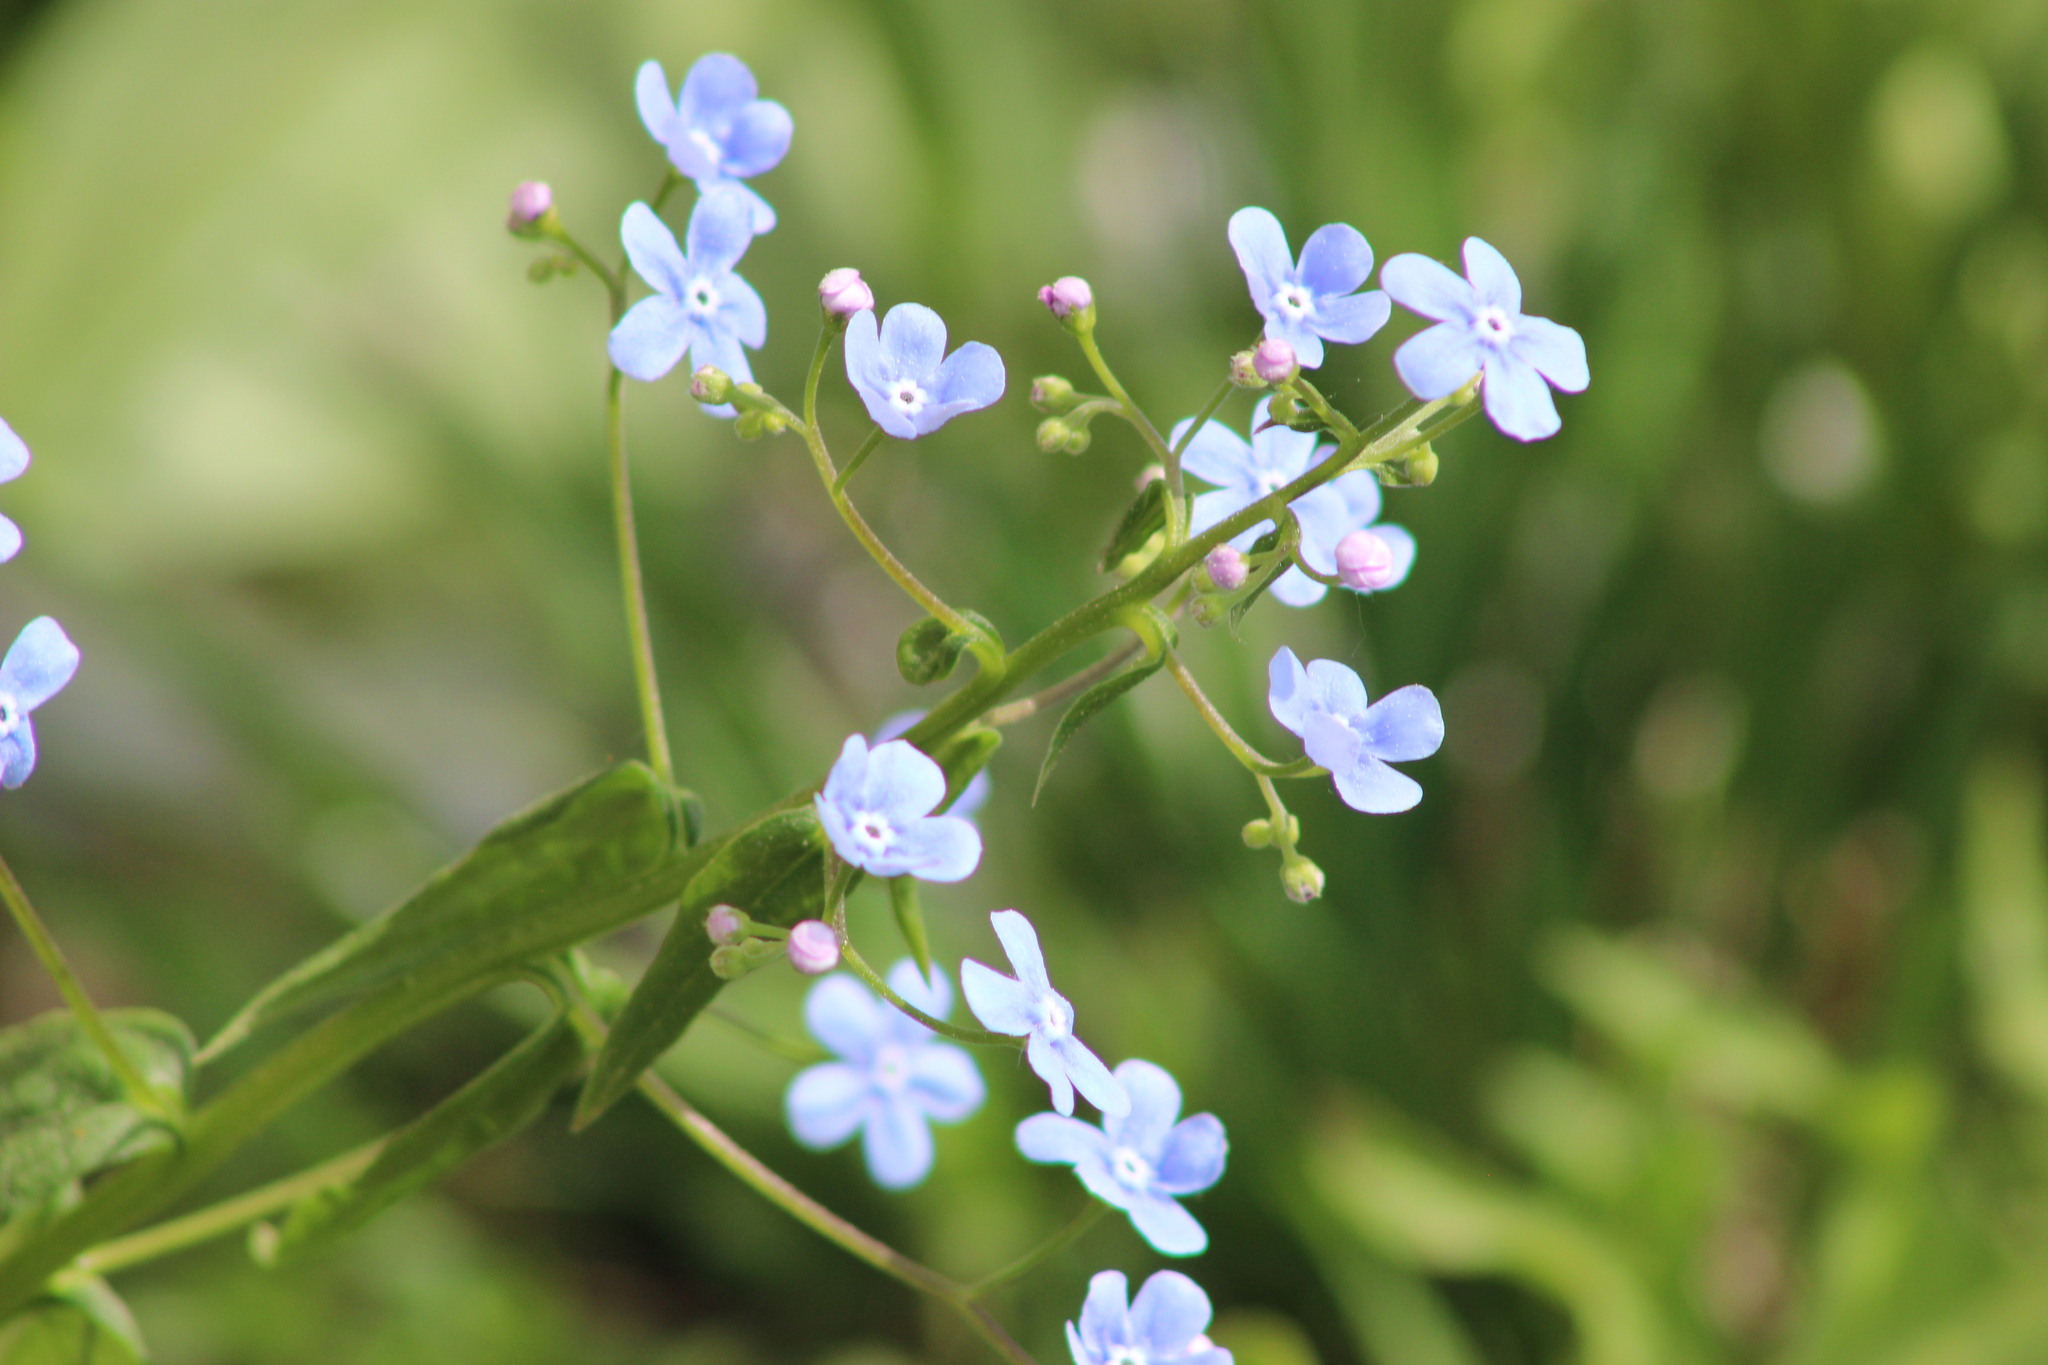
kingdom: Plantae
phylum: Tracheophyta
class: Magnoliopsida
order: Boraginales
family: Boraginaceae
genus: Brunnera
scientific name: Brunnera sibirica
